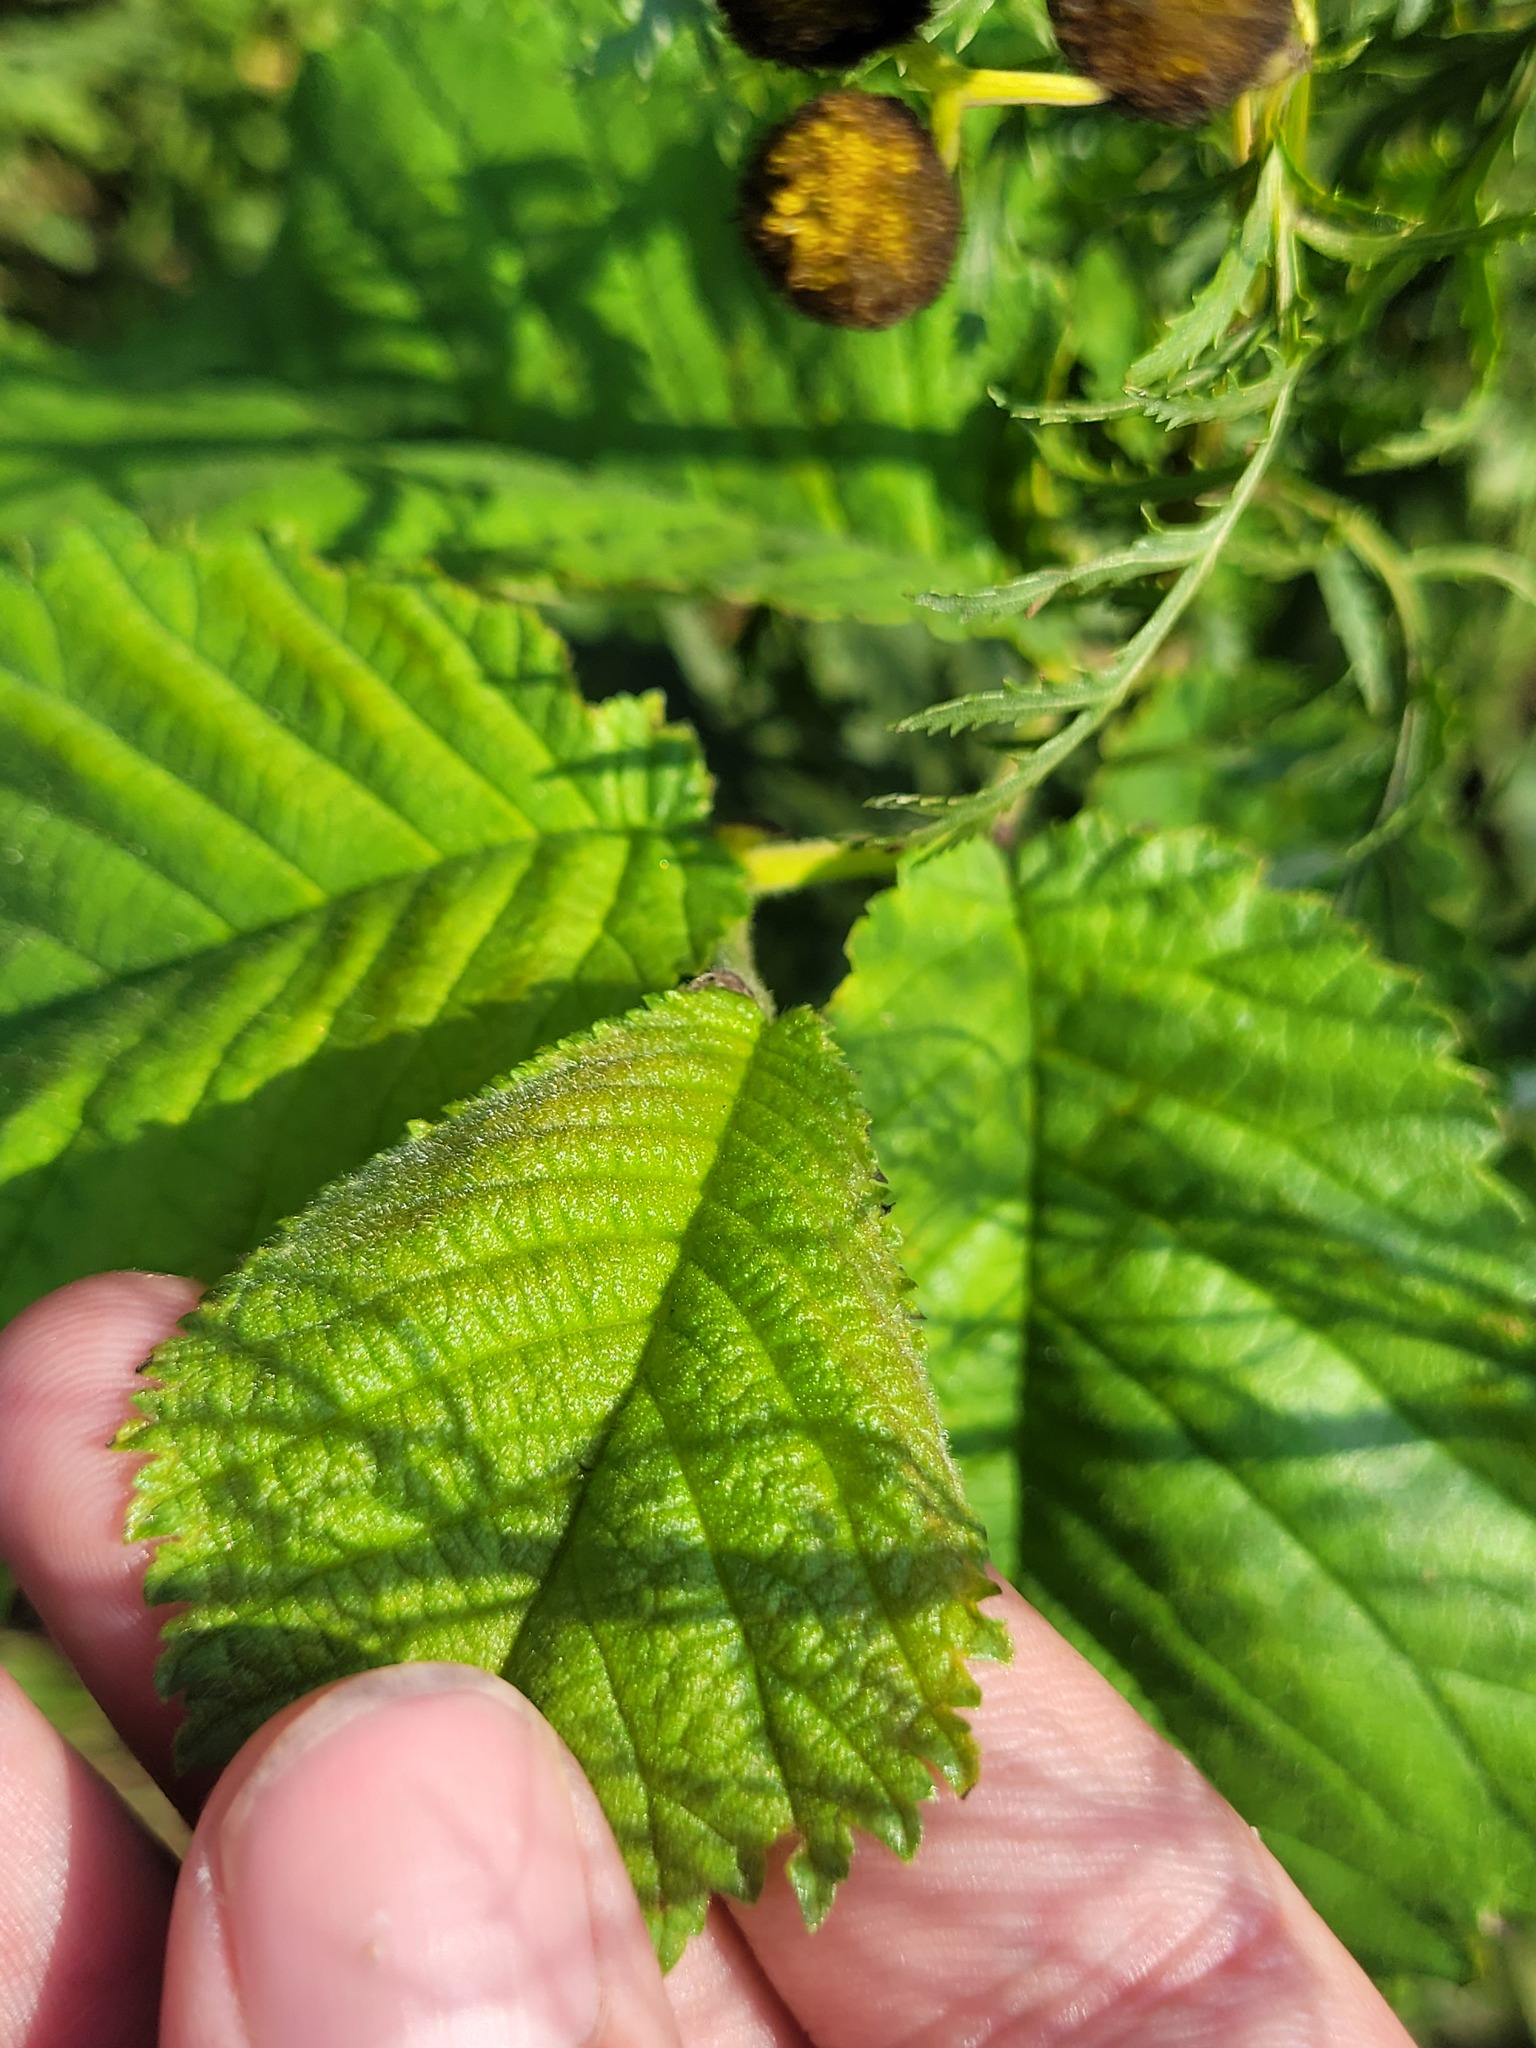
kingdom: Plantae
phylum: Tracheophyta
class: Magnoliopsida
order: Rosales
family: Ulmaceae
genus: Ulmus
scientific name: Ulmus glabra
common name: Wych elm
